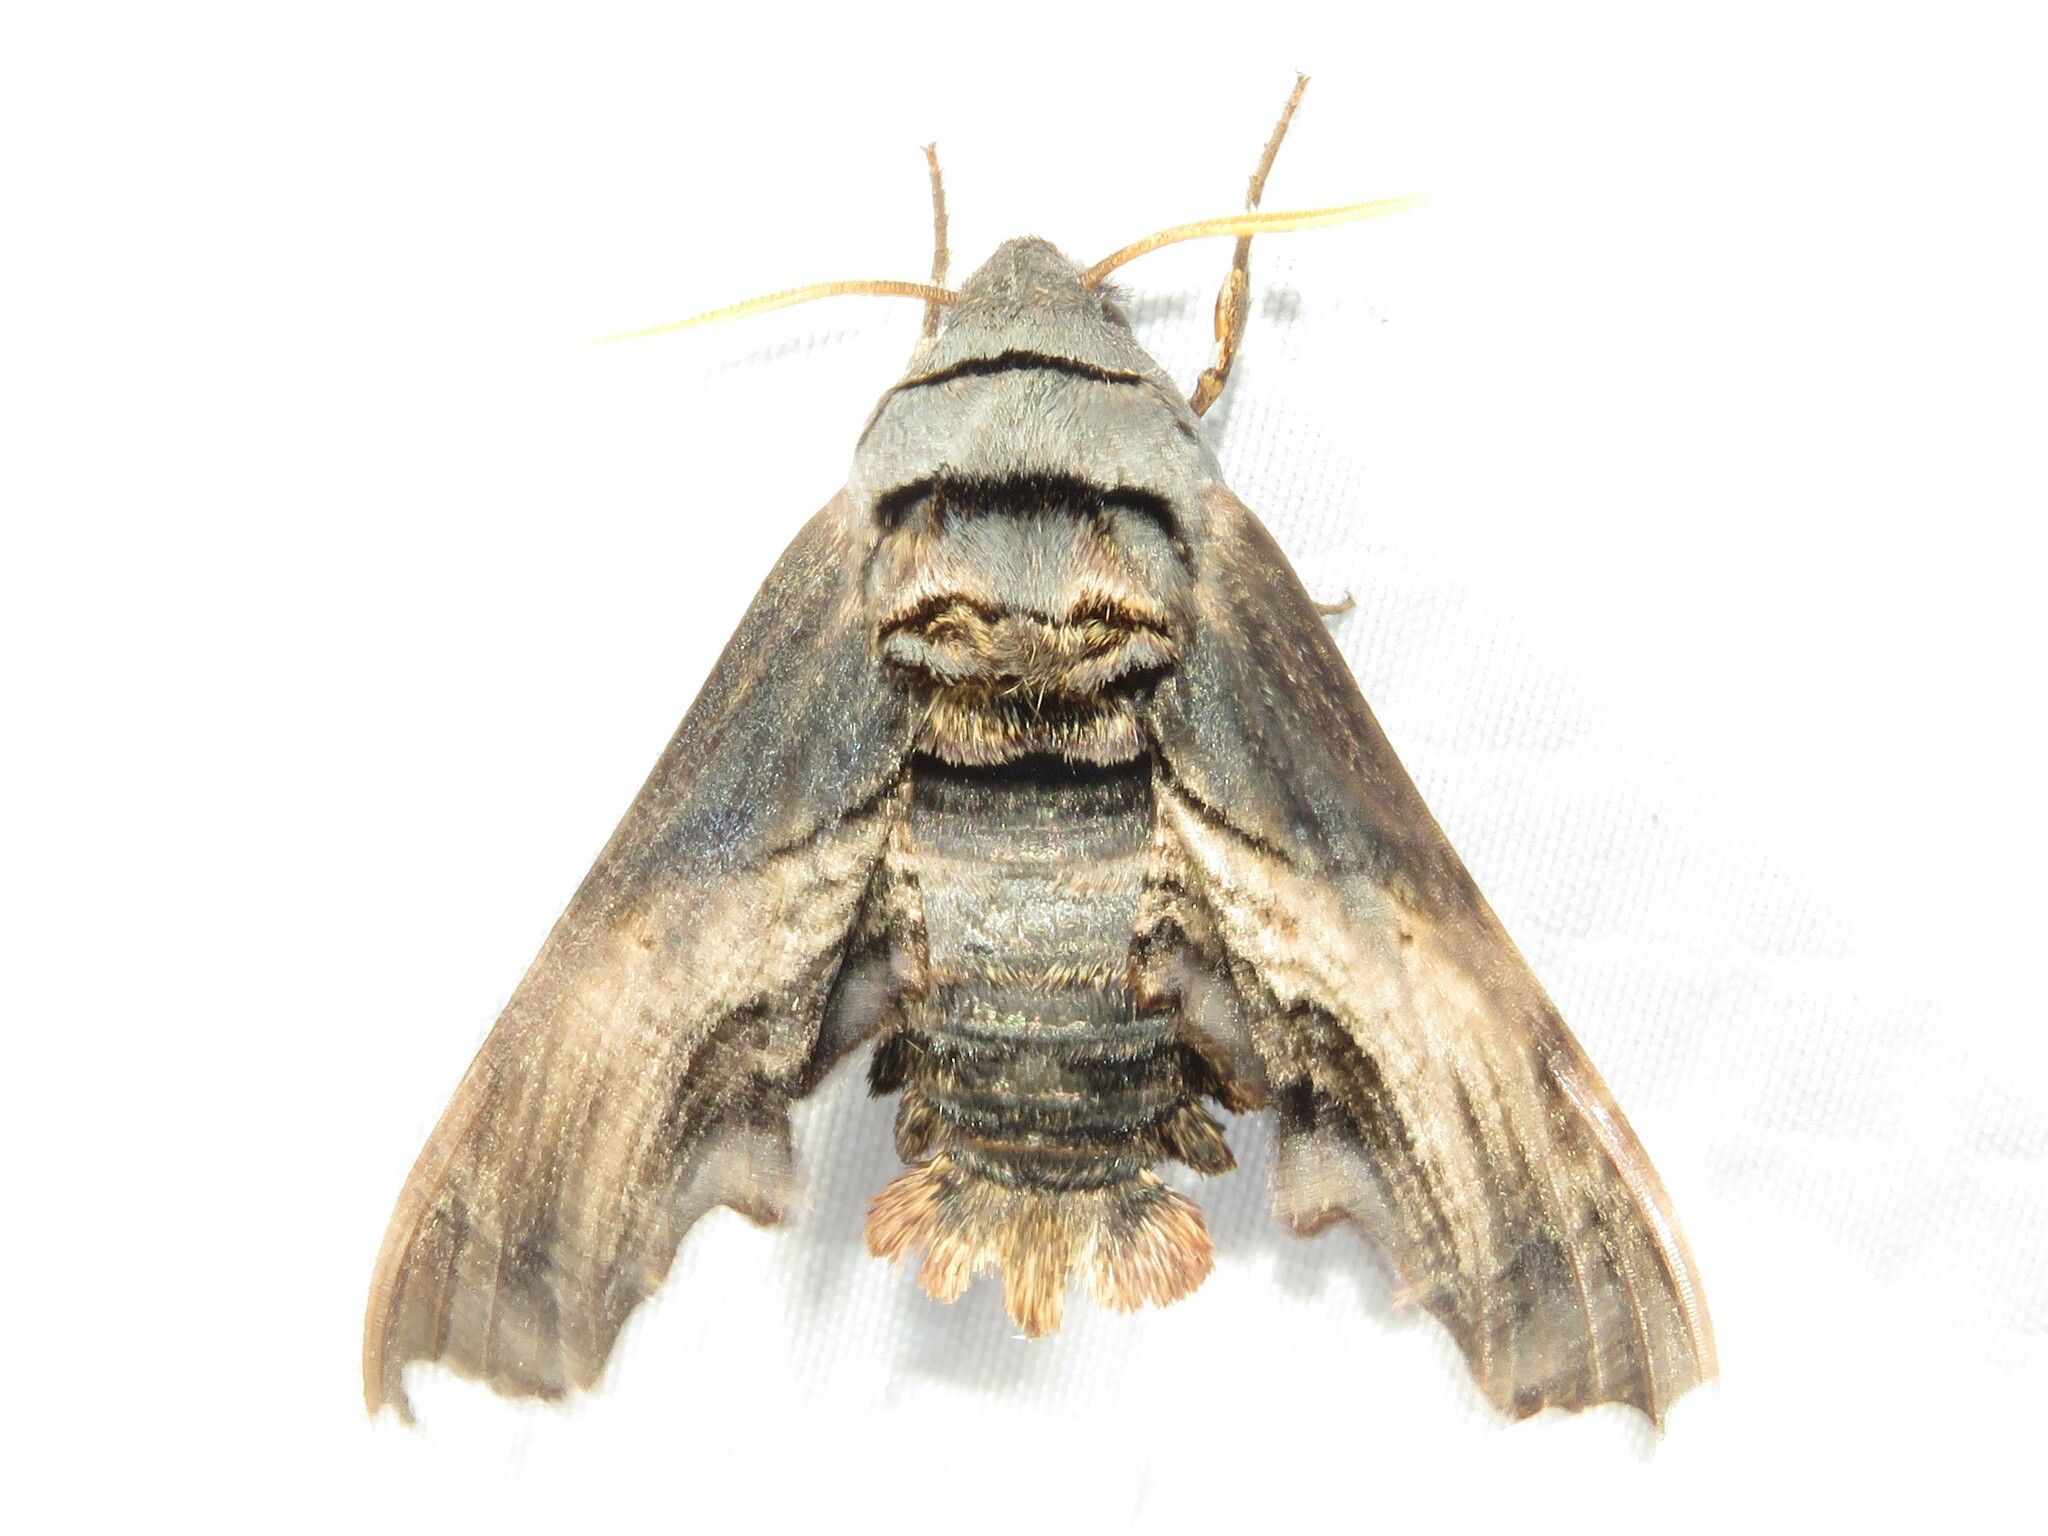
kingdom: Animalia
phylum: Arthropoda
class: Insecta
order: Lepidoptera
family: Sphingidae
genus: Sphecodina
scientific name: Sphecodina abbottii
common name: Abbott's sphinx
